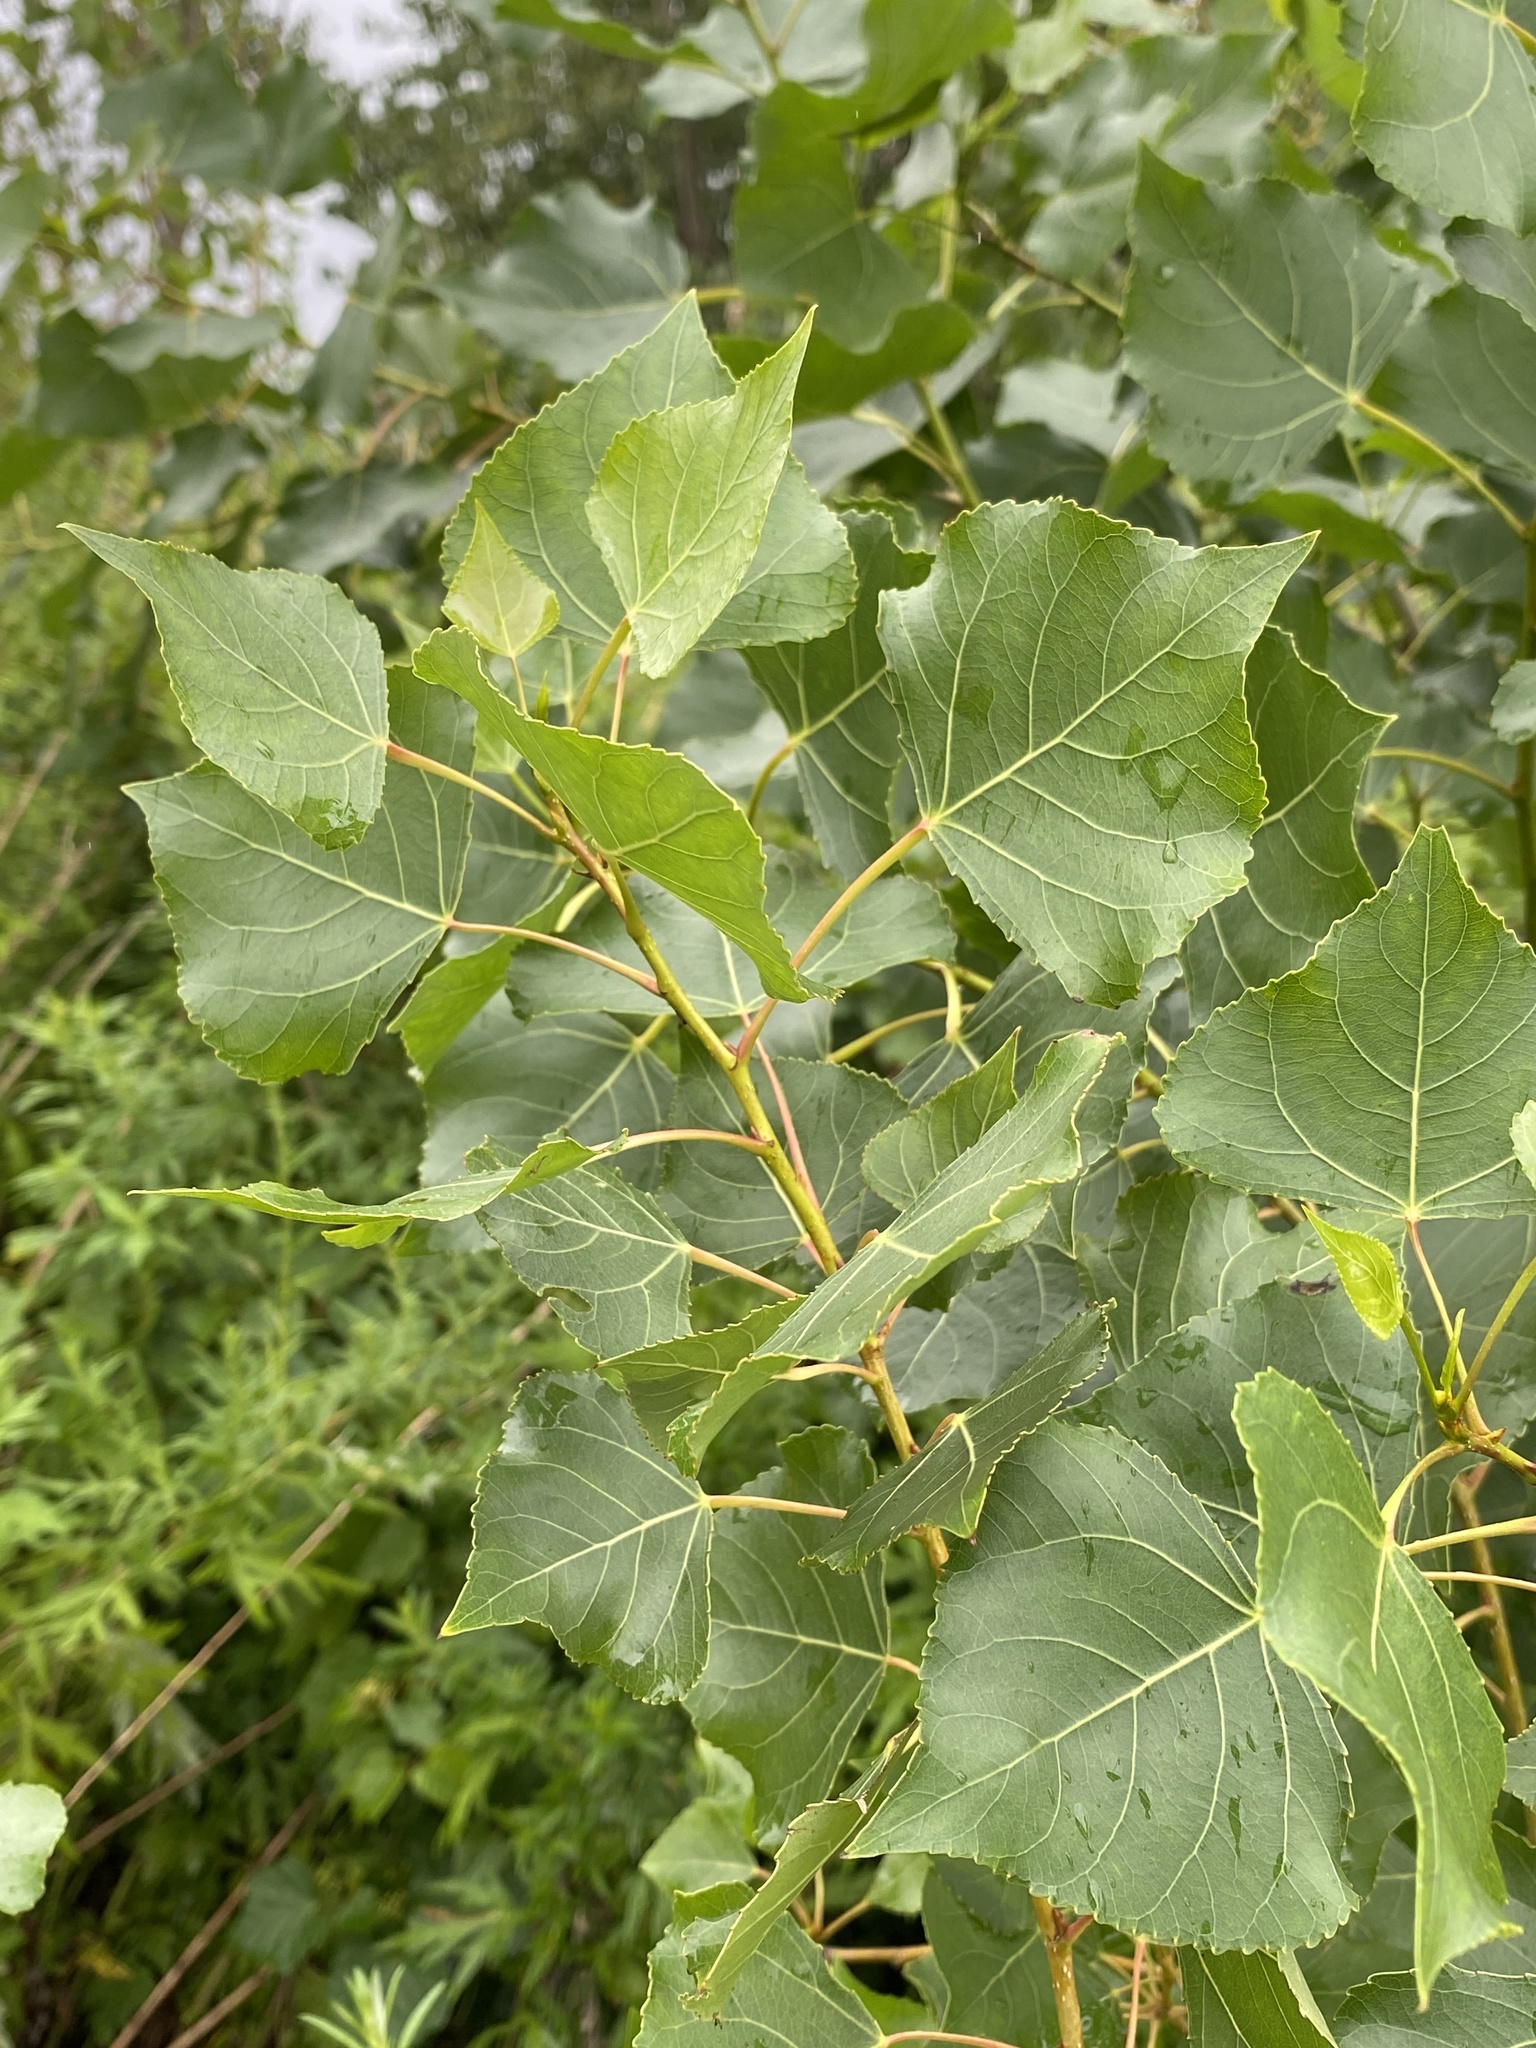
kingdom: Plantae
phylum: Tracheophyta
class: Magnoliopsida
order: Malpighiales
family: Salicaceae
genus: Populus
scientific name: Populus deltoides
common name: Eastern cottonwood
